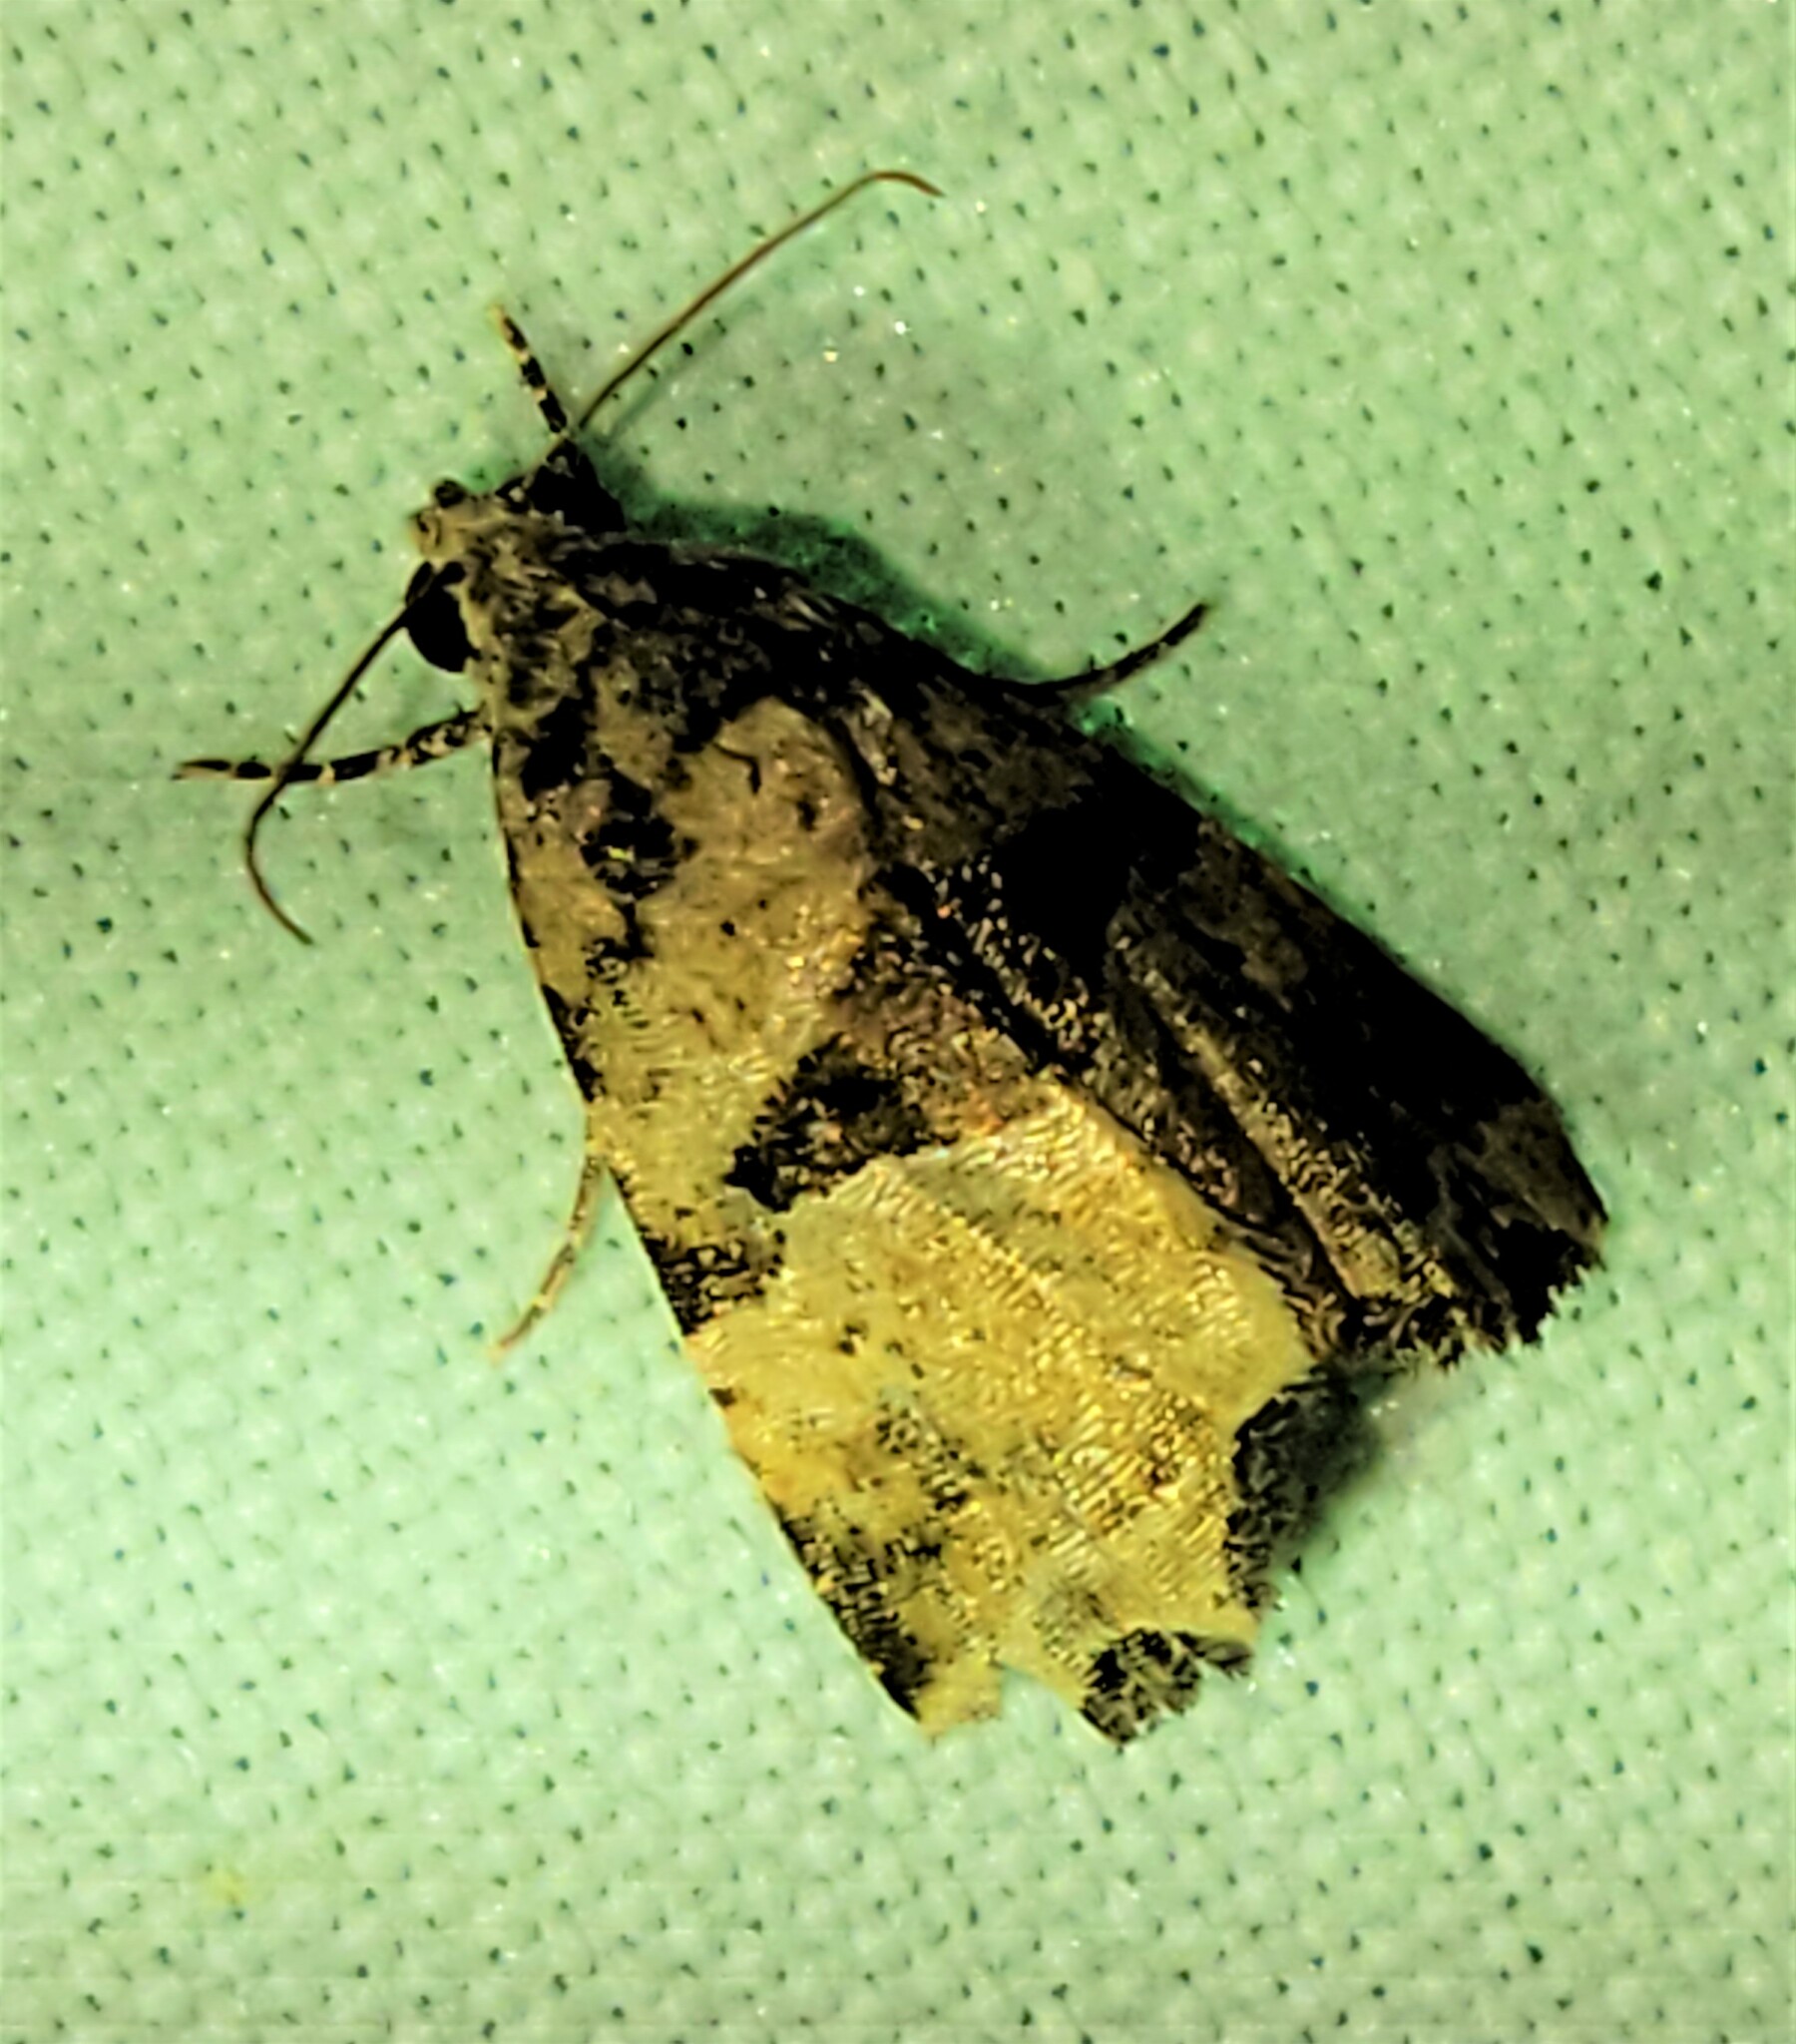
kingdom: Animalia
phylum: Arthropoda
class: Insecta
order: Lepidoptera
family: Noctuidae
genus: Cobubatha
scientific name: Cobubatha metaspilaris
